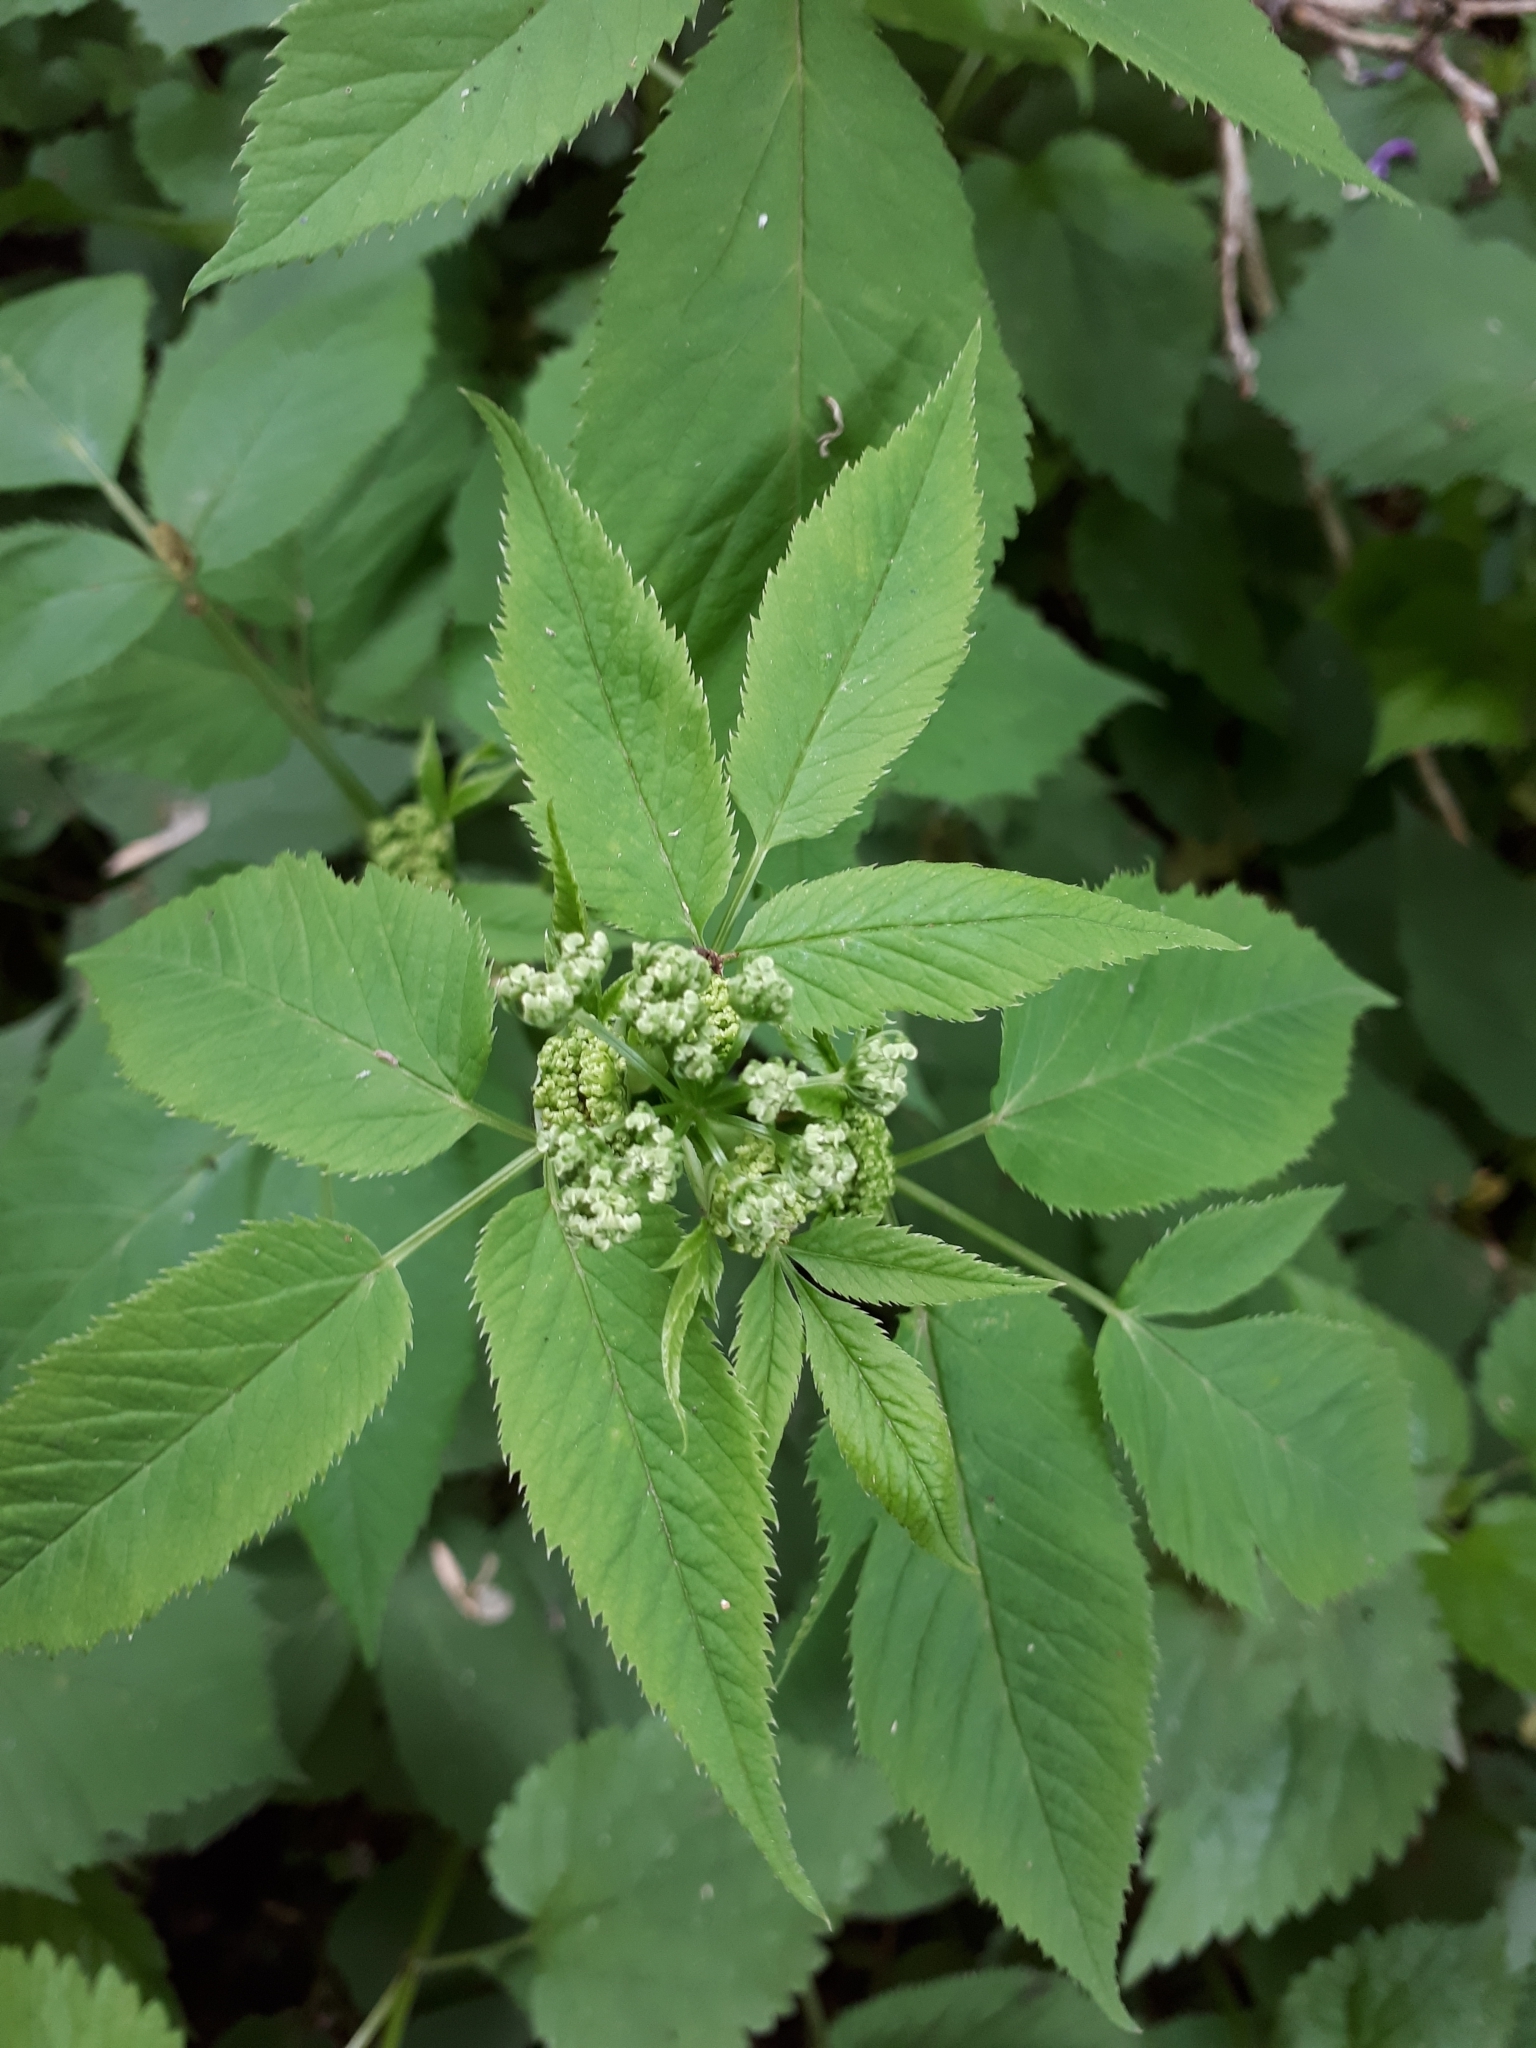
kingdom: Plantae
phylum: Tracheophyta
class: Magnoliopsida
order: Apiales
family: Apiaceae
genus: Aegopodium
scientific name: Aegopodium podagraria
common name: Ground-elder
